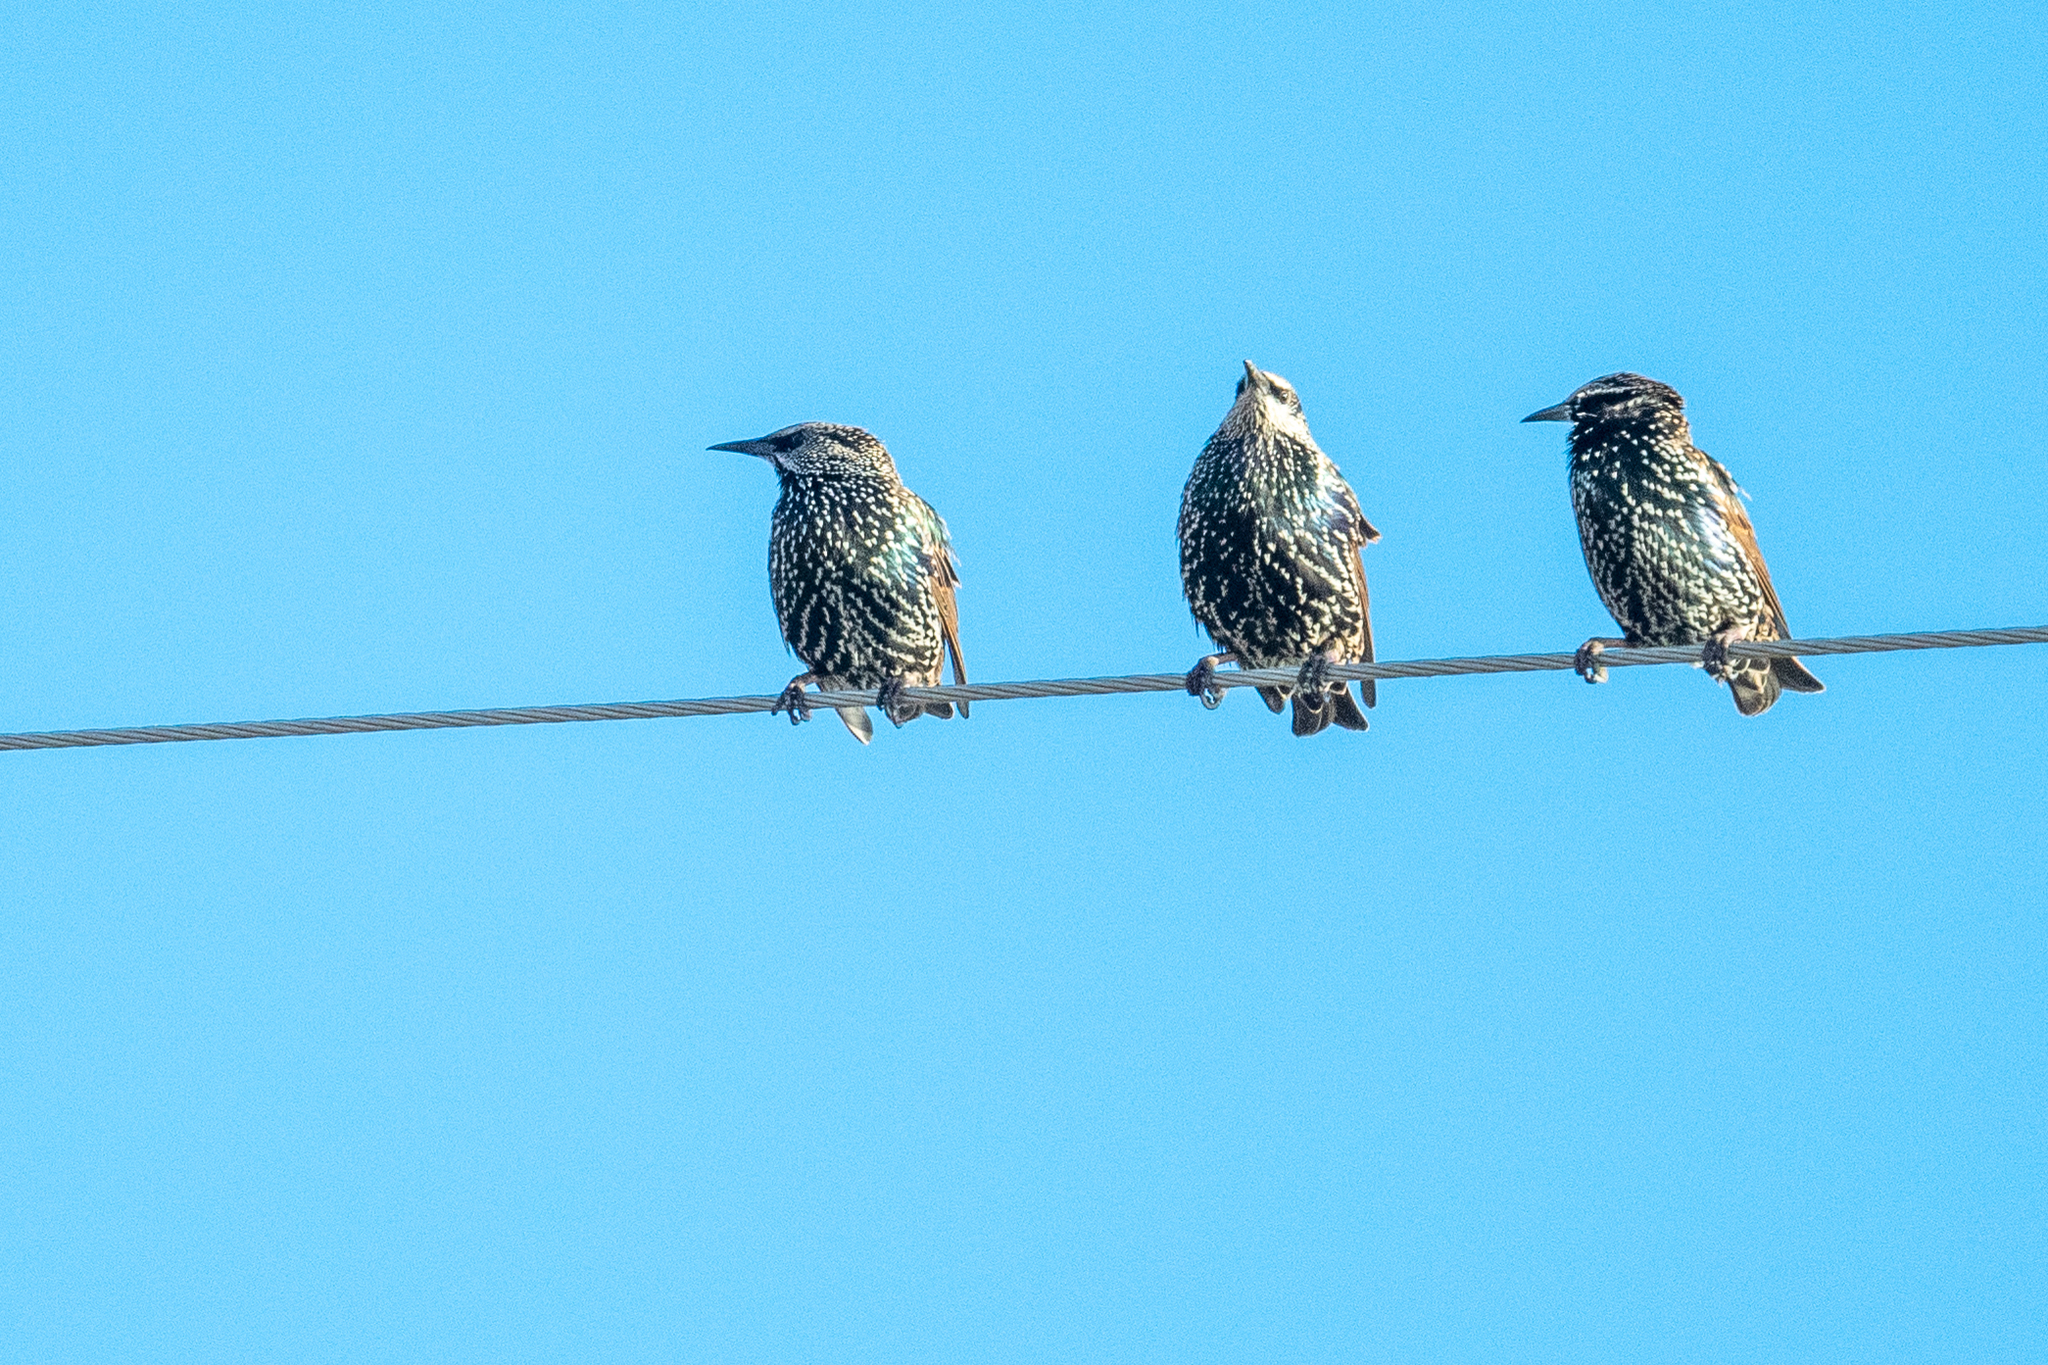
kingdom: Animalia
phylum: Chordata
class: Aves
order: Passeriformes
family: Sturnidae
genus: Sturnus
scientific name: Sturnus vulgaris
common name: Common starling
